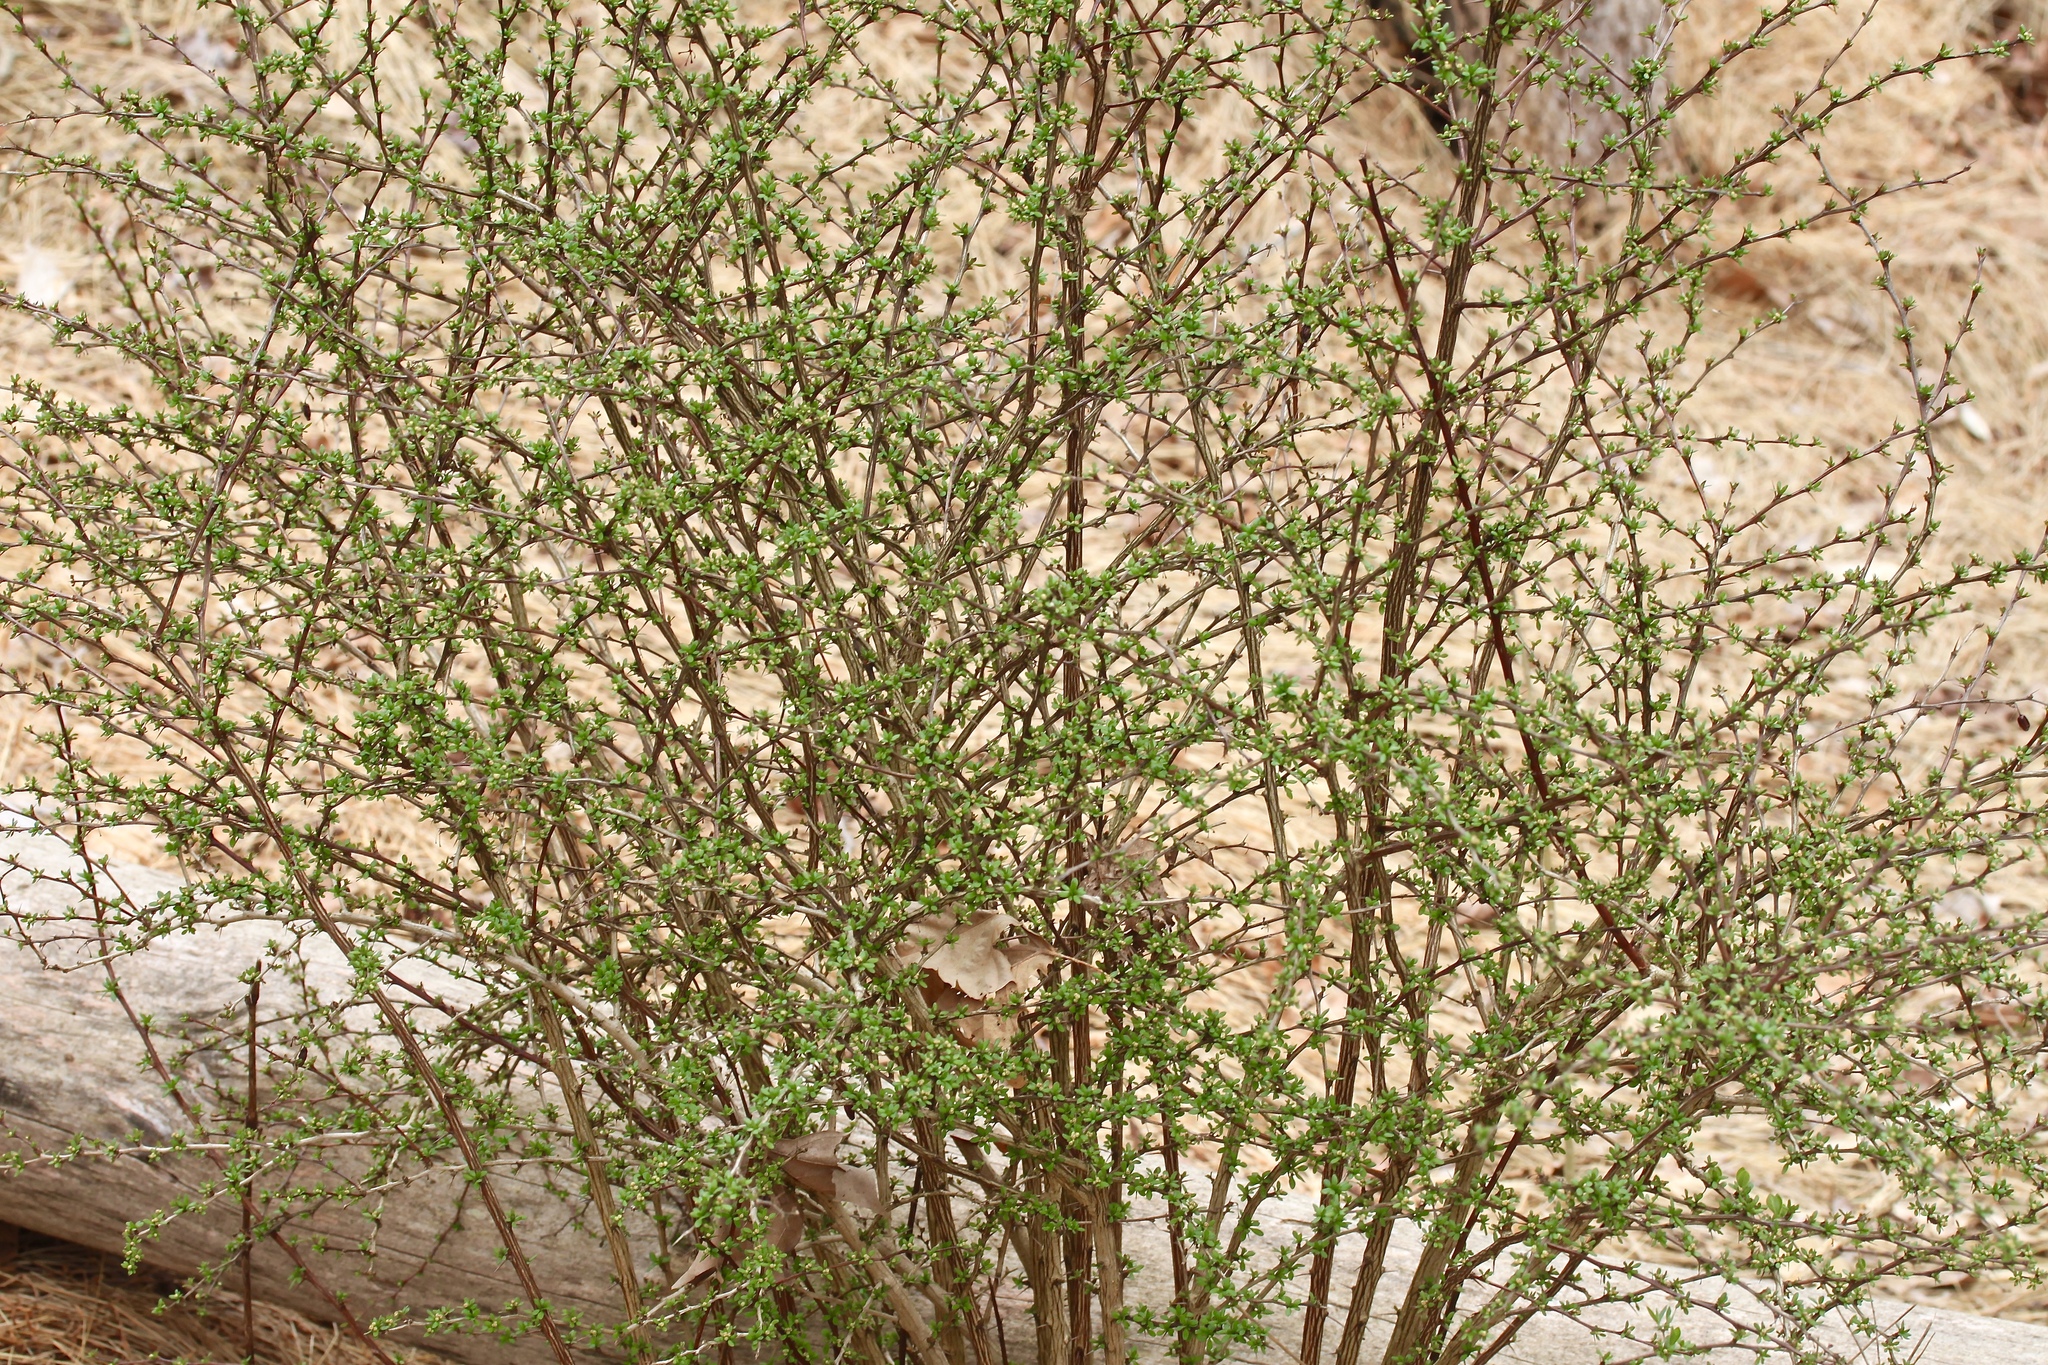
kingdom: Plantae
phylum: Tracheophyta
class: Magnoliopsida
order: Ranunculales
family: Berberidaceae
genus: Berberis
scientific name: Berberis thunbergii
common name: Japanese barberry
